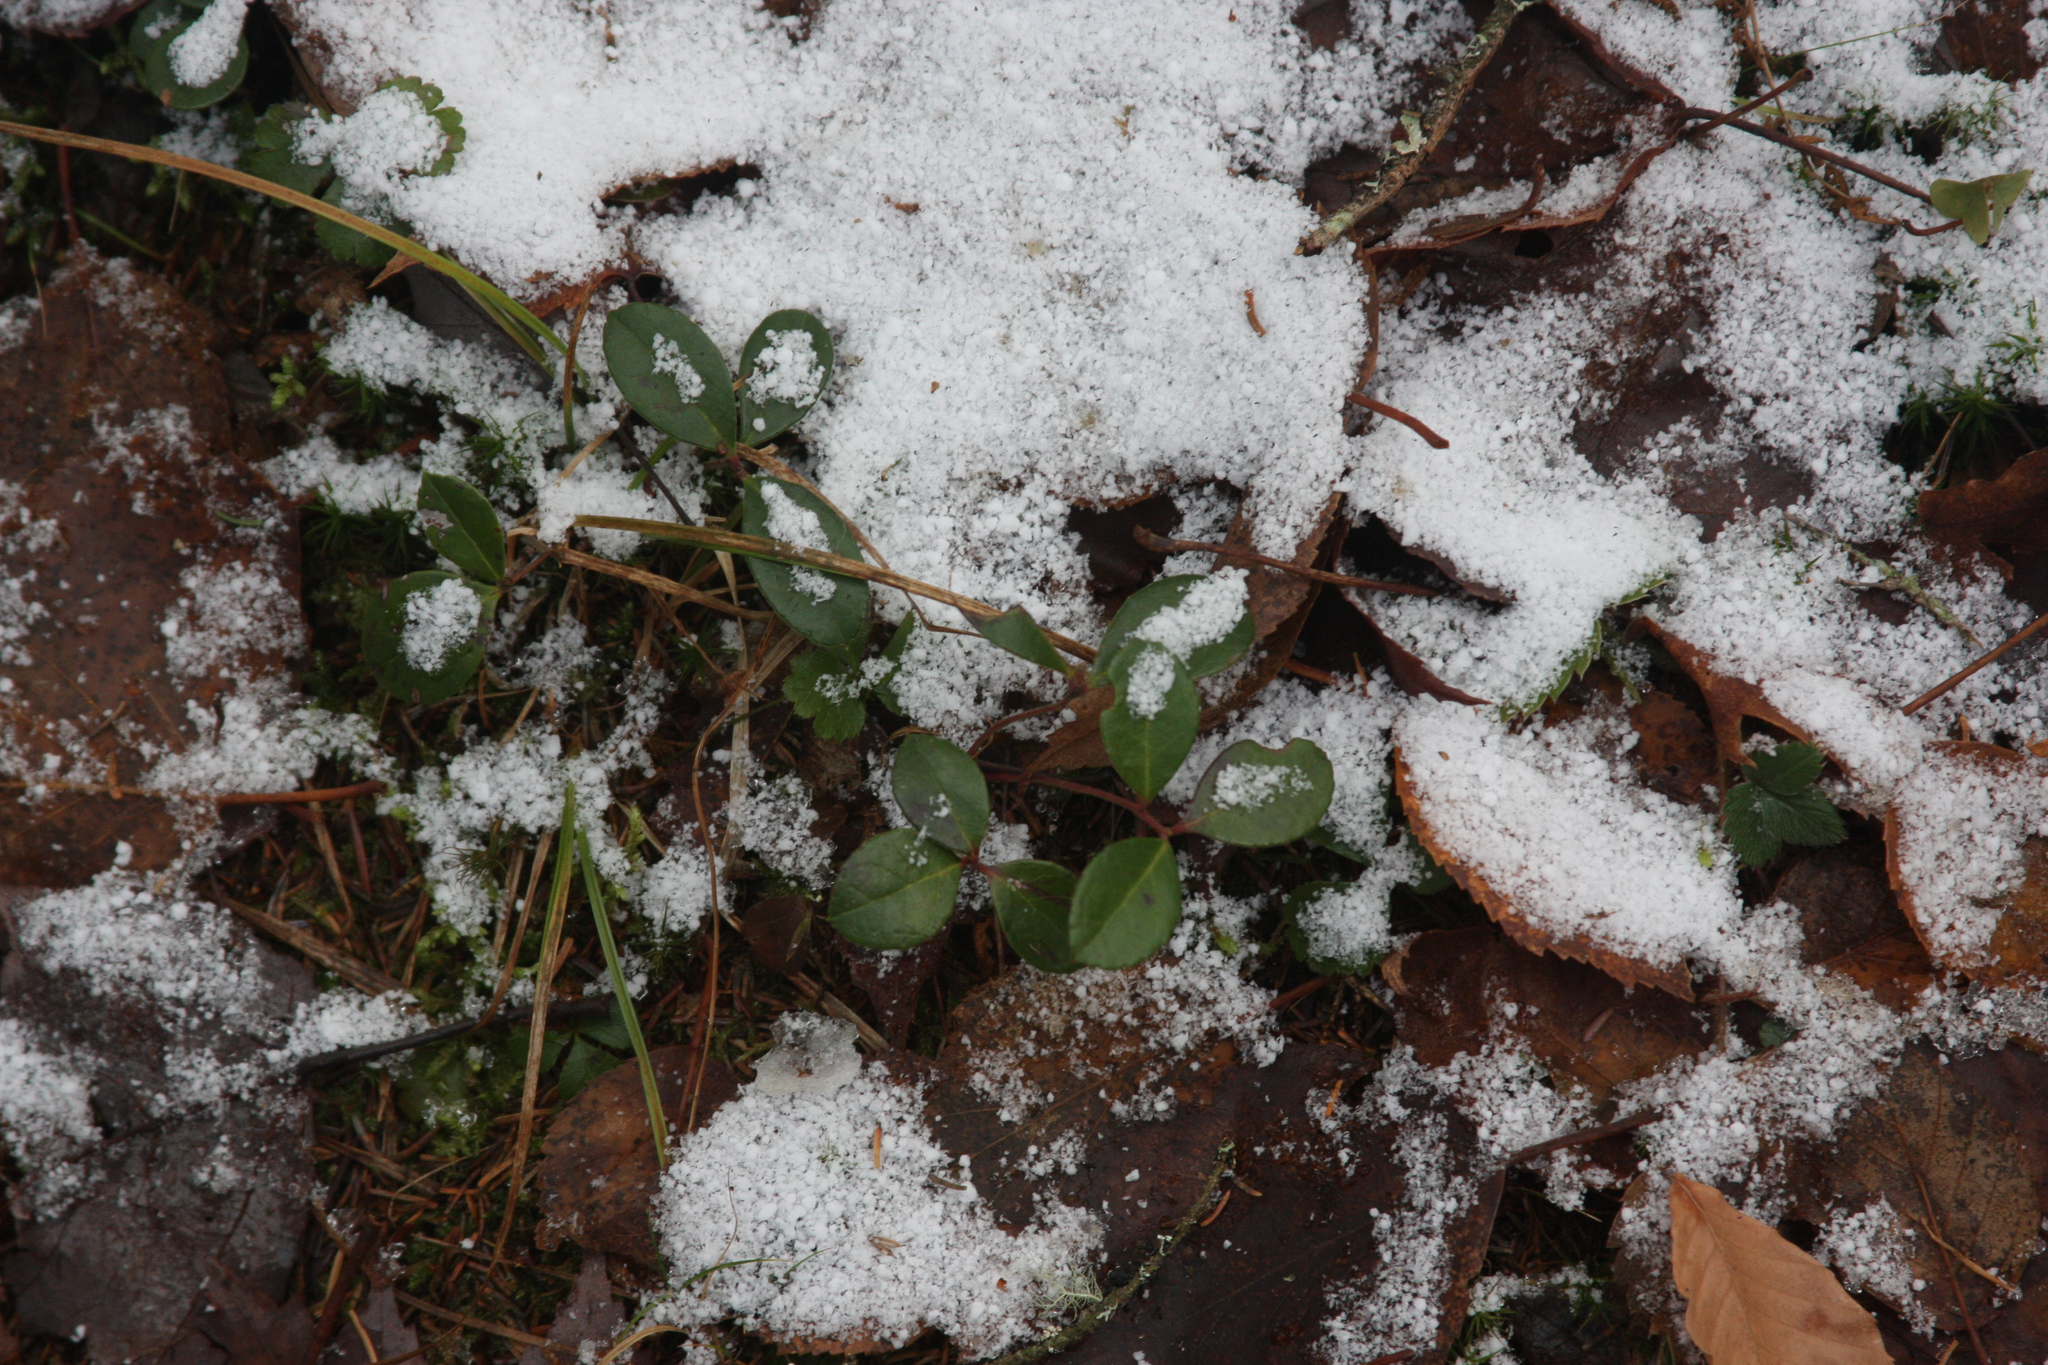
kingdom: Plantae
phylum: Tracheophyta
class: Magnoliopsida
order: Ericales
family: Ericaceae
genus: Gaultheria
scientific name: Gaultheria procumbens
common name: Checkerberry
